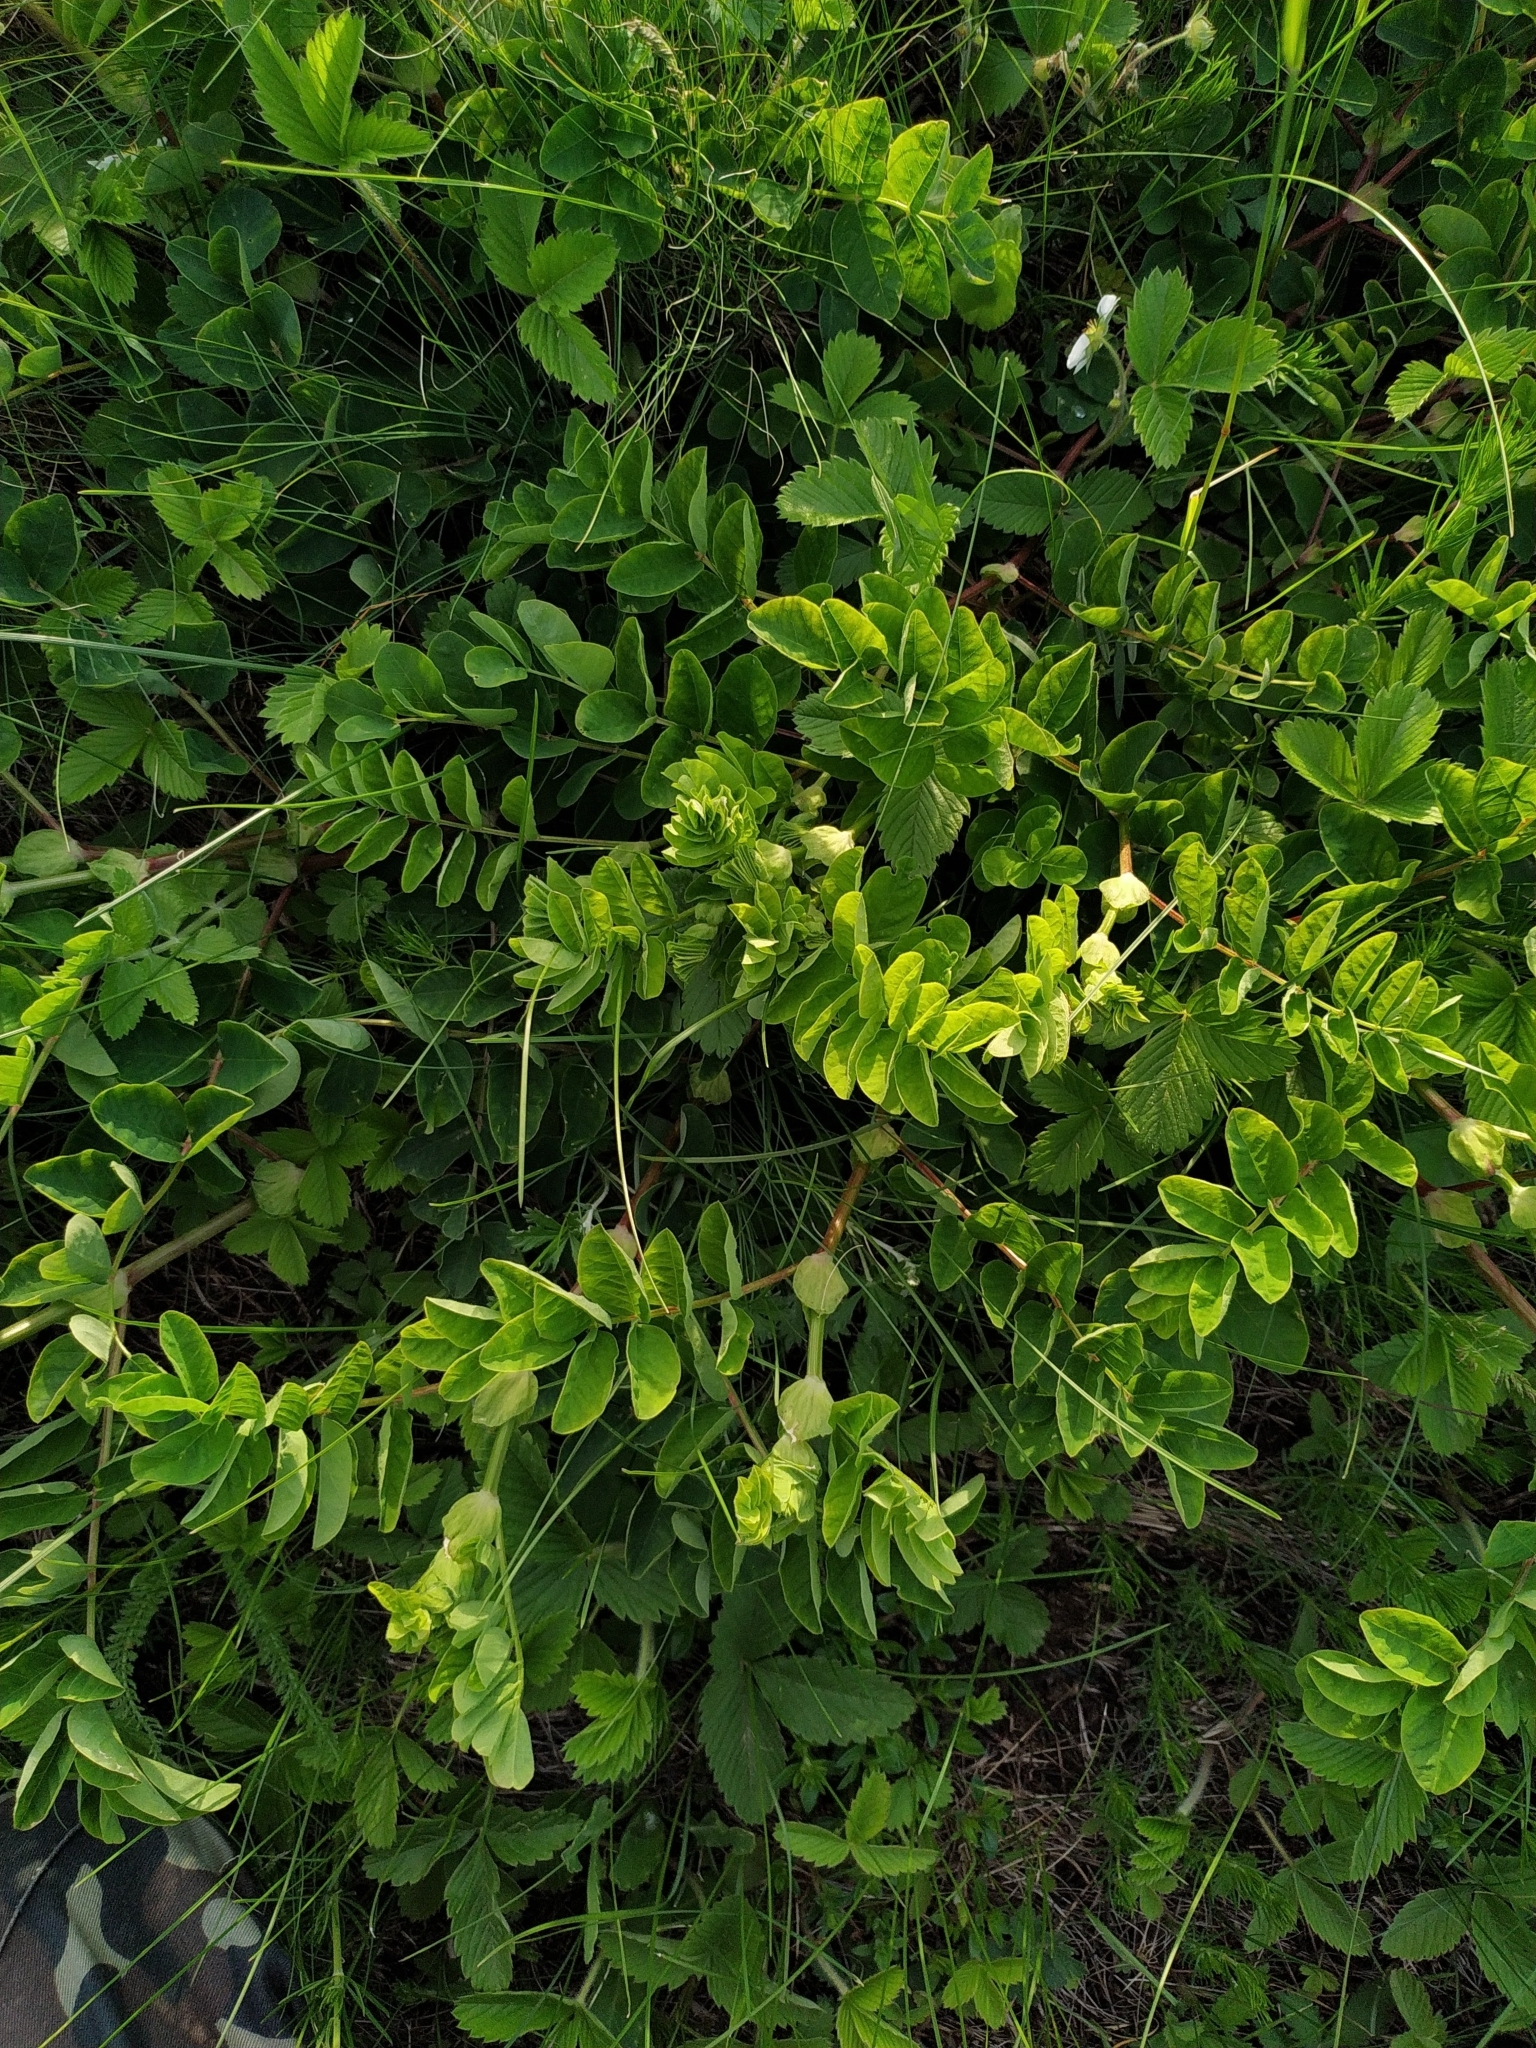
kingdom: Plantae
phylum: Tracheophyta
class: Magnoliopsida
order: Fabales
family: Fabaceae
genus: Astragalus
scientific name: Astragalus glycyphyllos
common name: Wild liquorice
